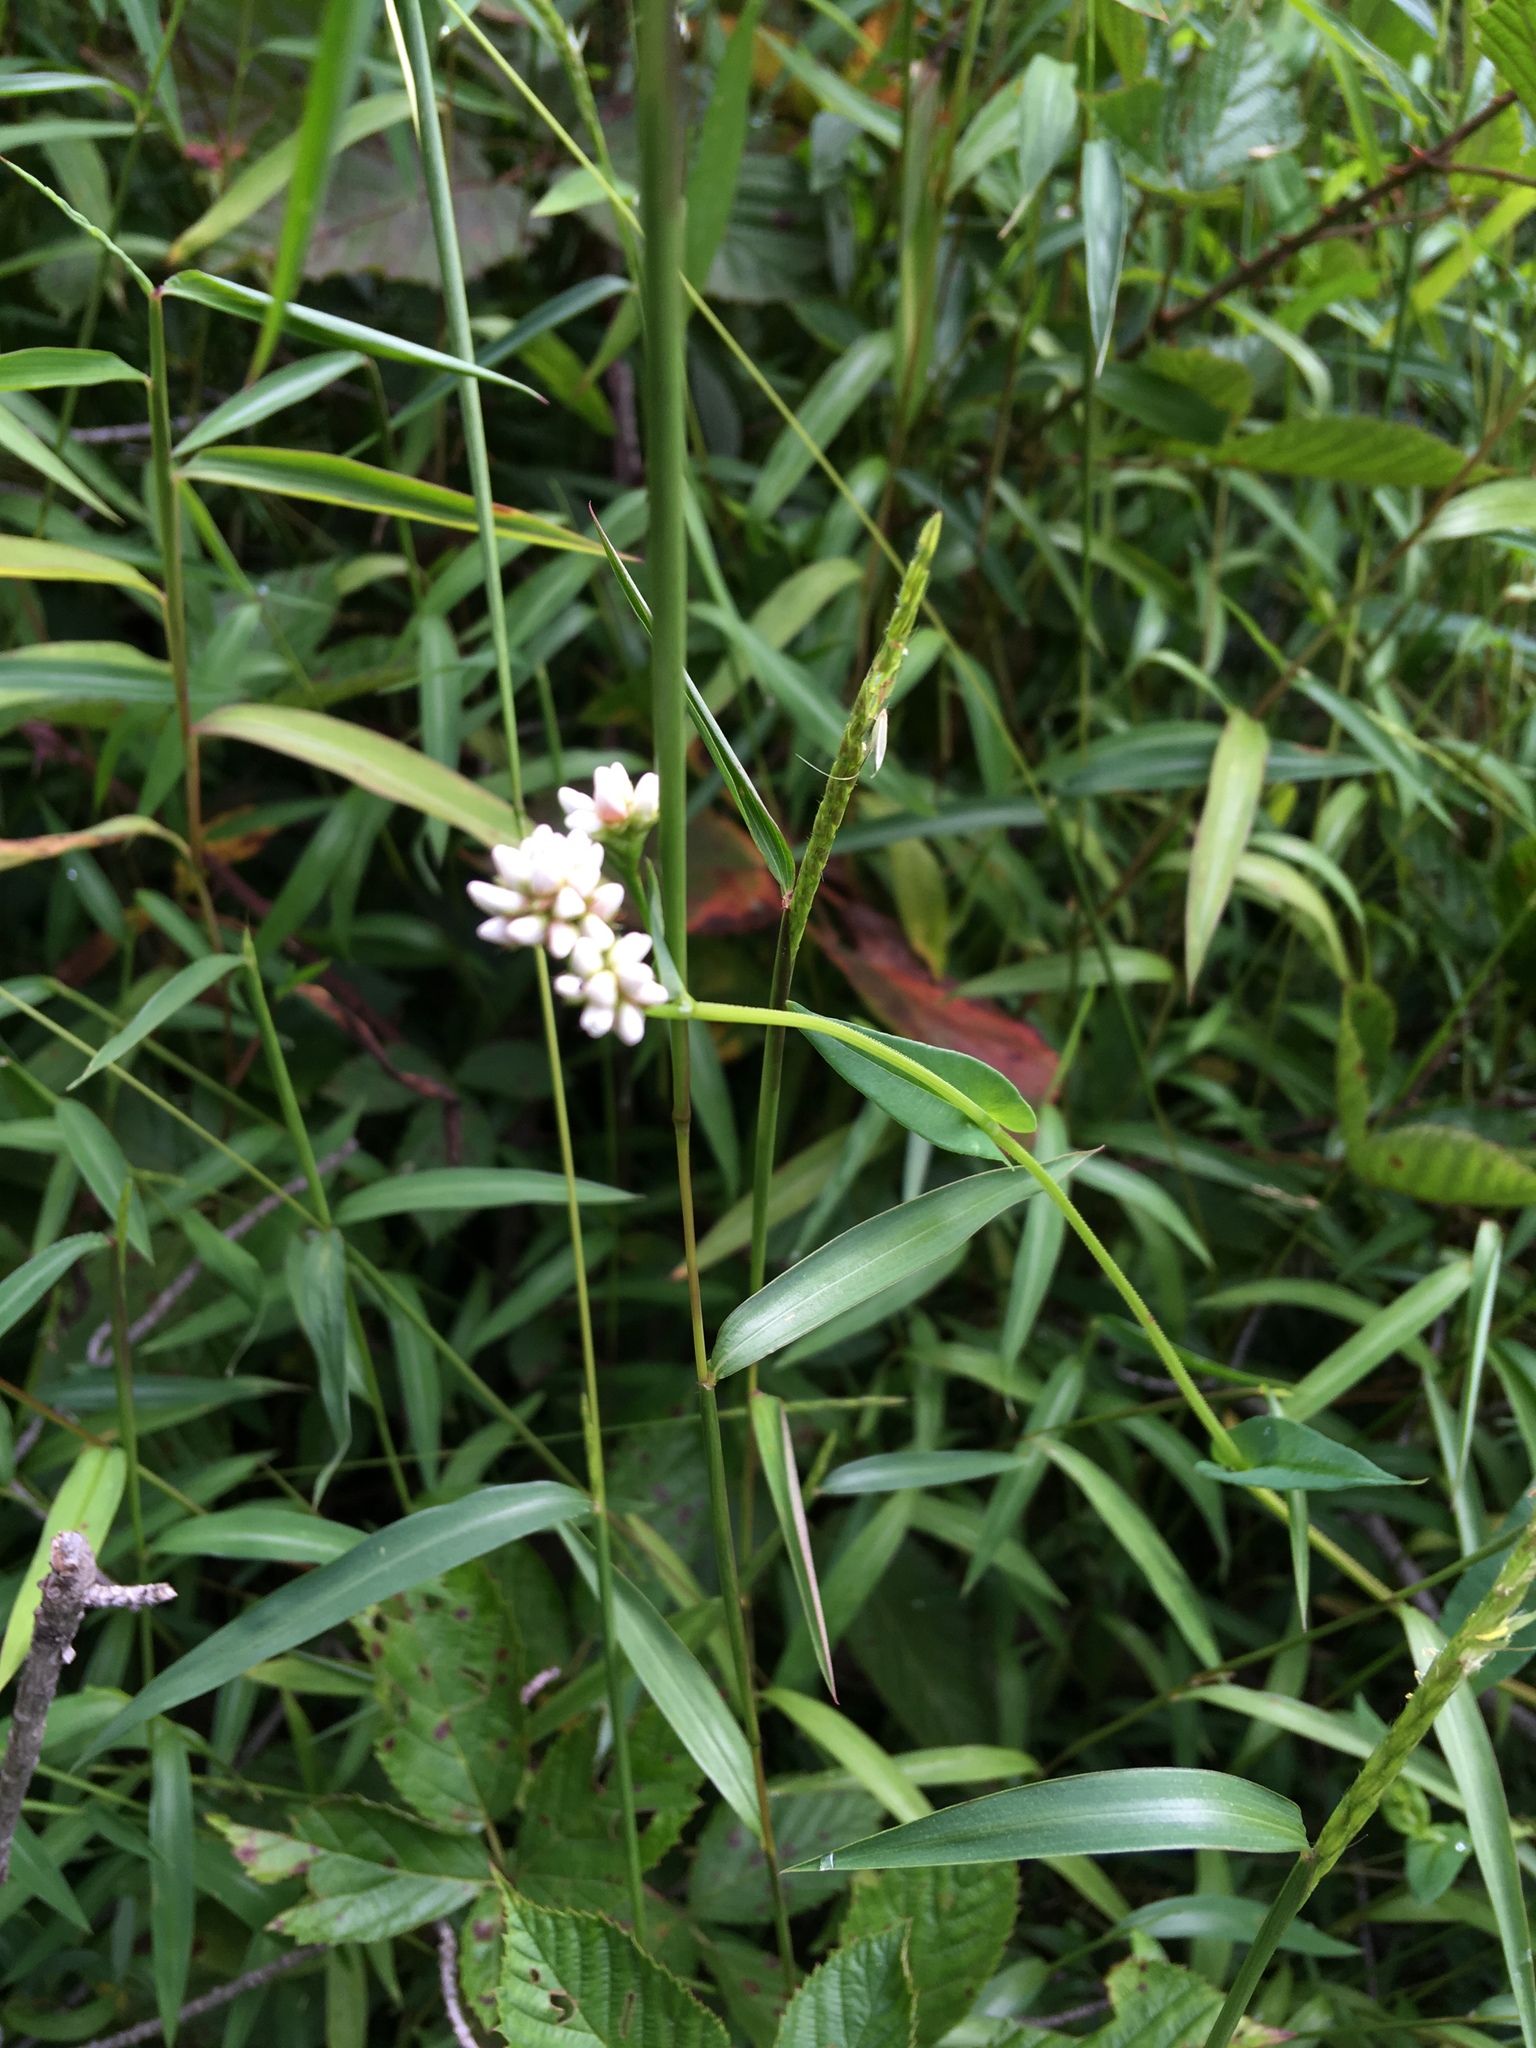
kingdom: Plantae
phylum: Tracheophyta
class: Magnoliopsida
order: Caryophyllales
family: Polygonaceae
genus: Persicaria
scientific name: Persicaria sagittata
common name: American tearthumb
